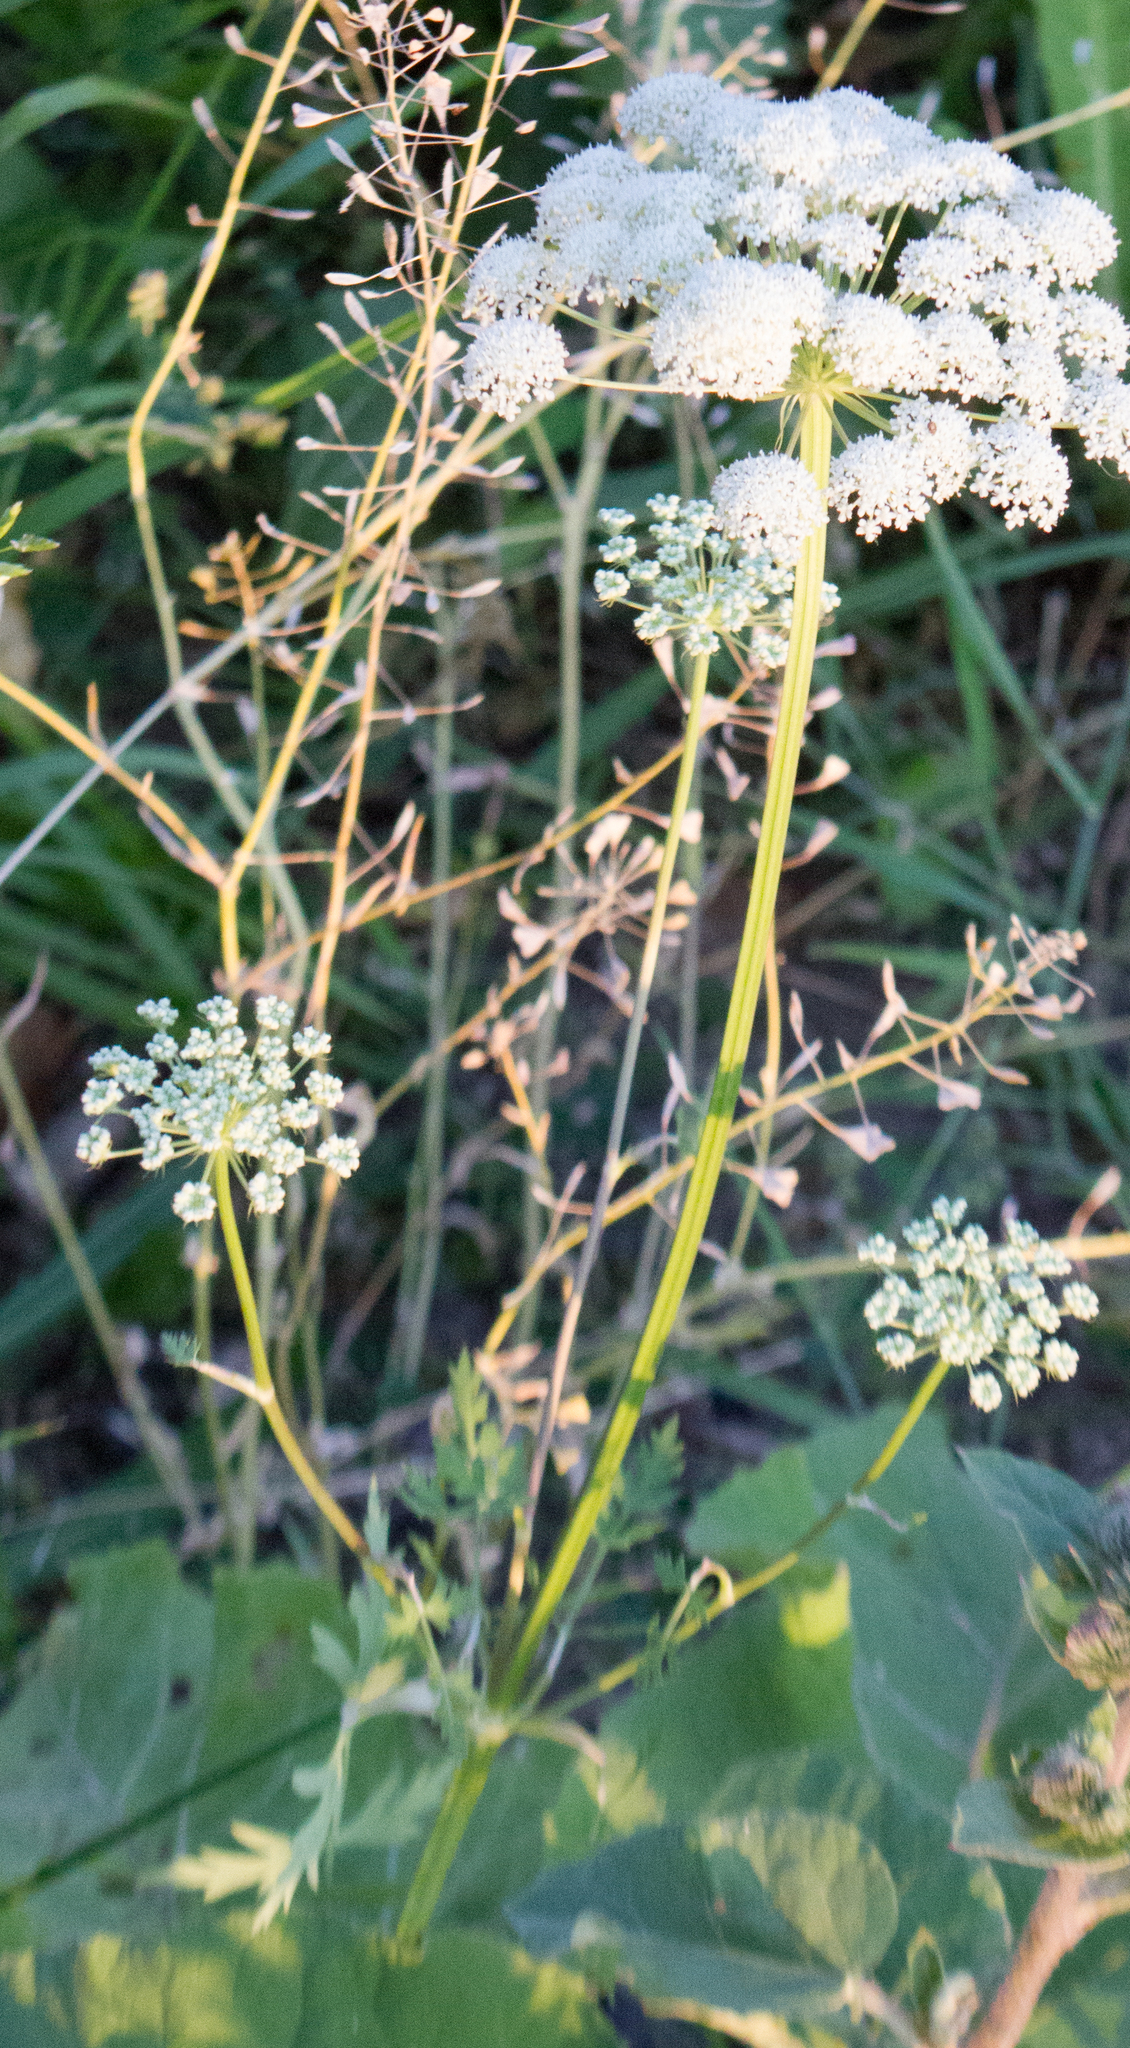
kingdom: Plantae
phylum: Tracheophyta
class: Magnoliopsida
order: Apiales
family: Apiaceae
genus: Seseli
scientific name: Seseli libanotis
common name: Mooncarrot
